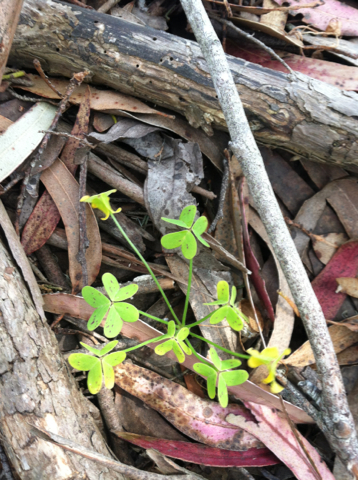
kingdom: Plantae
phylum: Tracheophyta
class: Magnoliopsida
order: Oxalidales
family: Oxalidaceae
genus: Oxalis
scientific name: Oxalis pes-caprae
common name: Bermuda-buttercup
